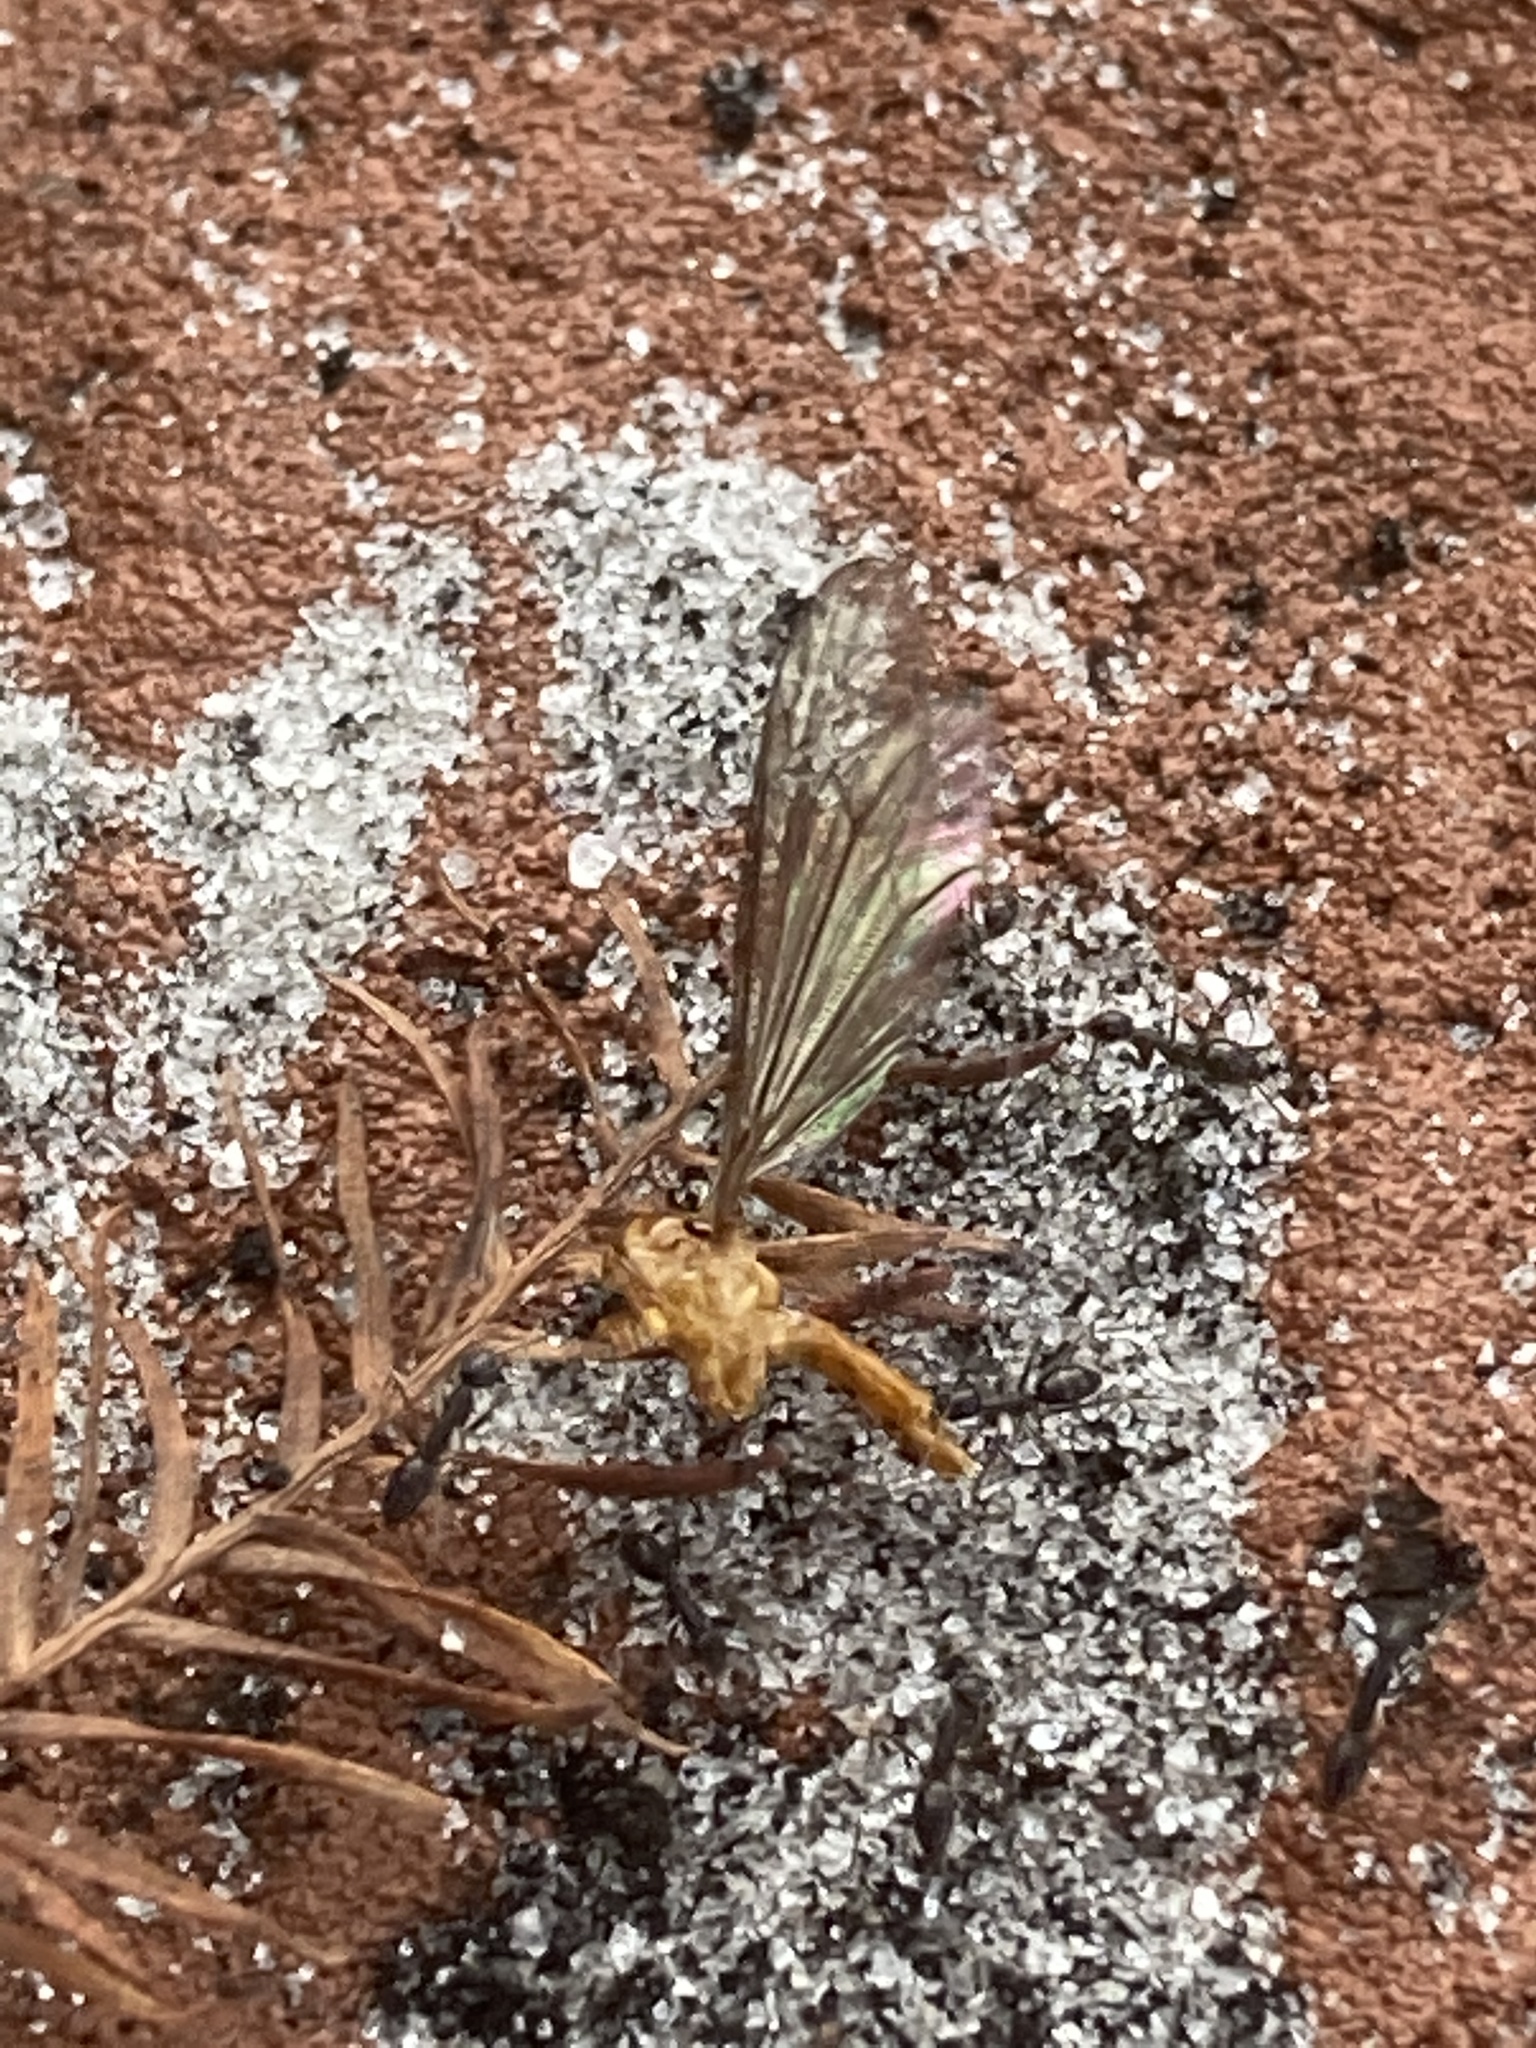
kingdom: Animalia
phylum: Arthropoda
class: Insecta
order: Hymenoptera
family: Formicidae
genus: Paratrechina
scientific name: Paratrechina longicornis
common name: Longhorned crazy ant
